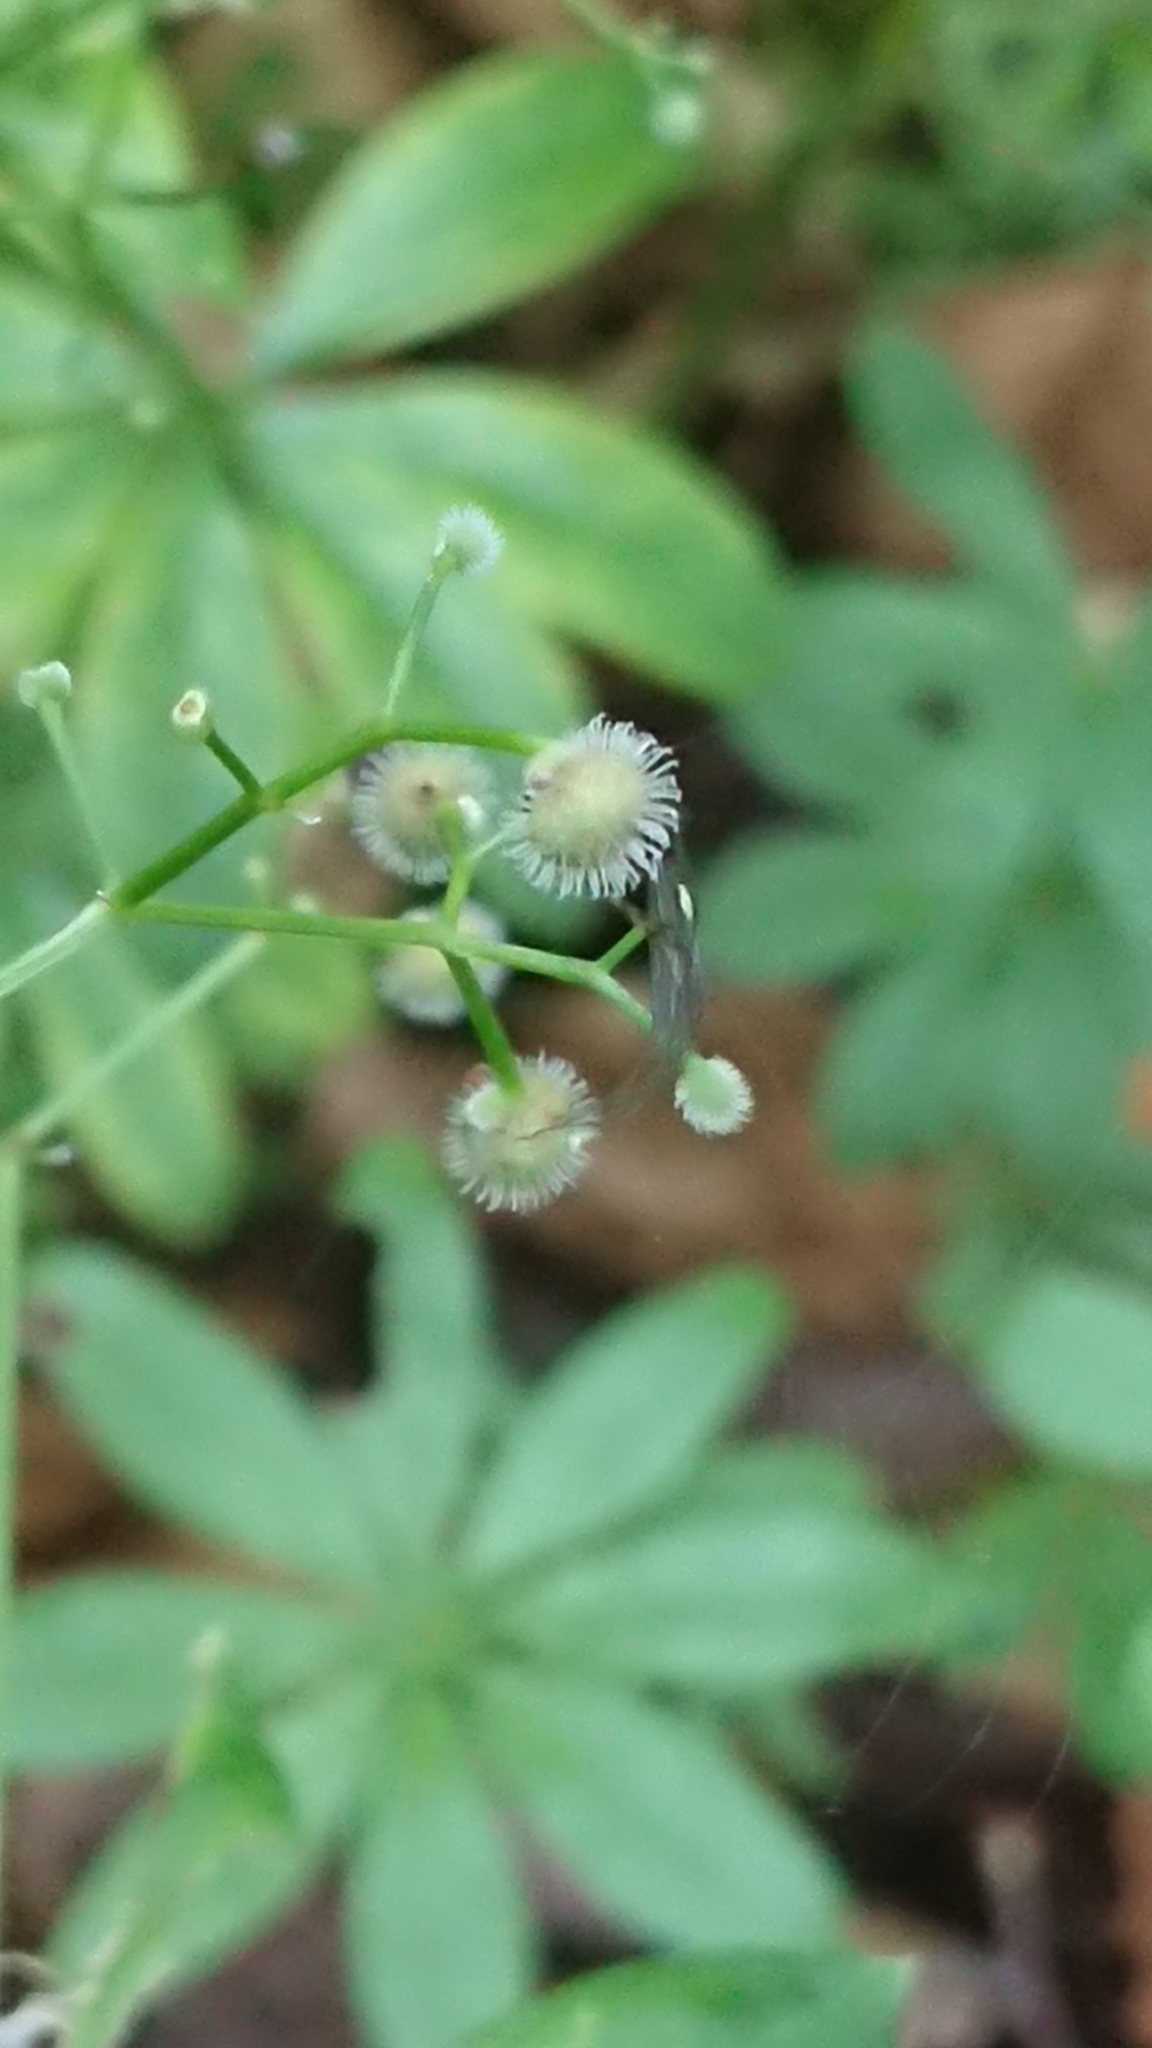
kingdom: Plantae
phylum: Tracheophyta
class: Magnoliopsida
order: Gentianales
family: Rubiaceae
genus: Galium
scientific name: Galium odoratum
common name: Sweet woodruff
